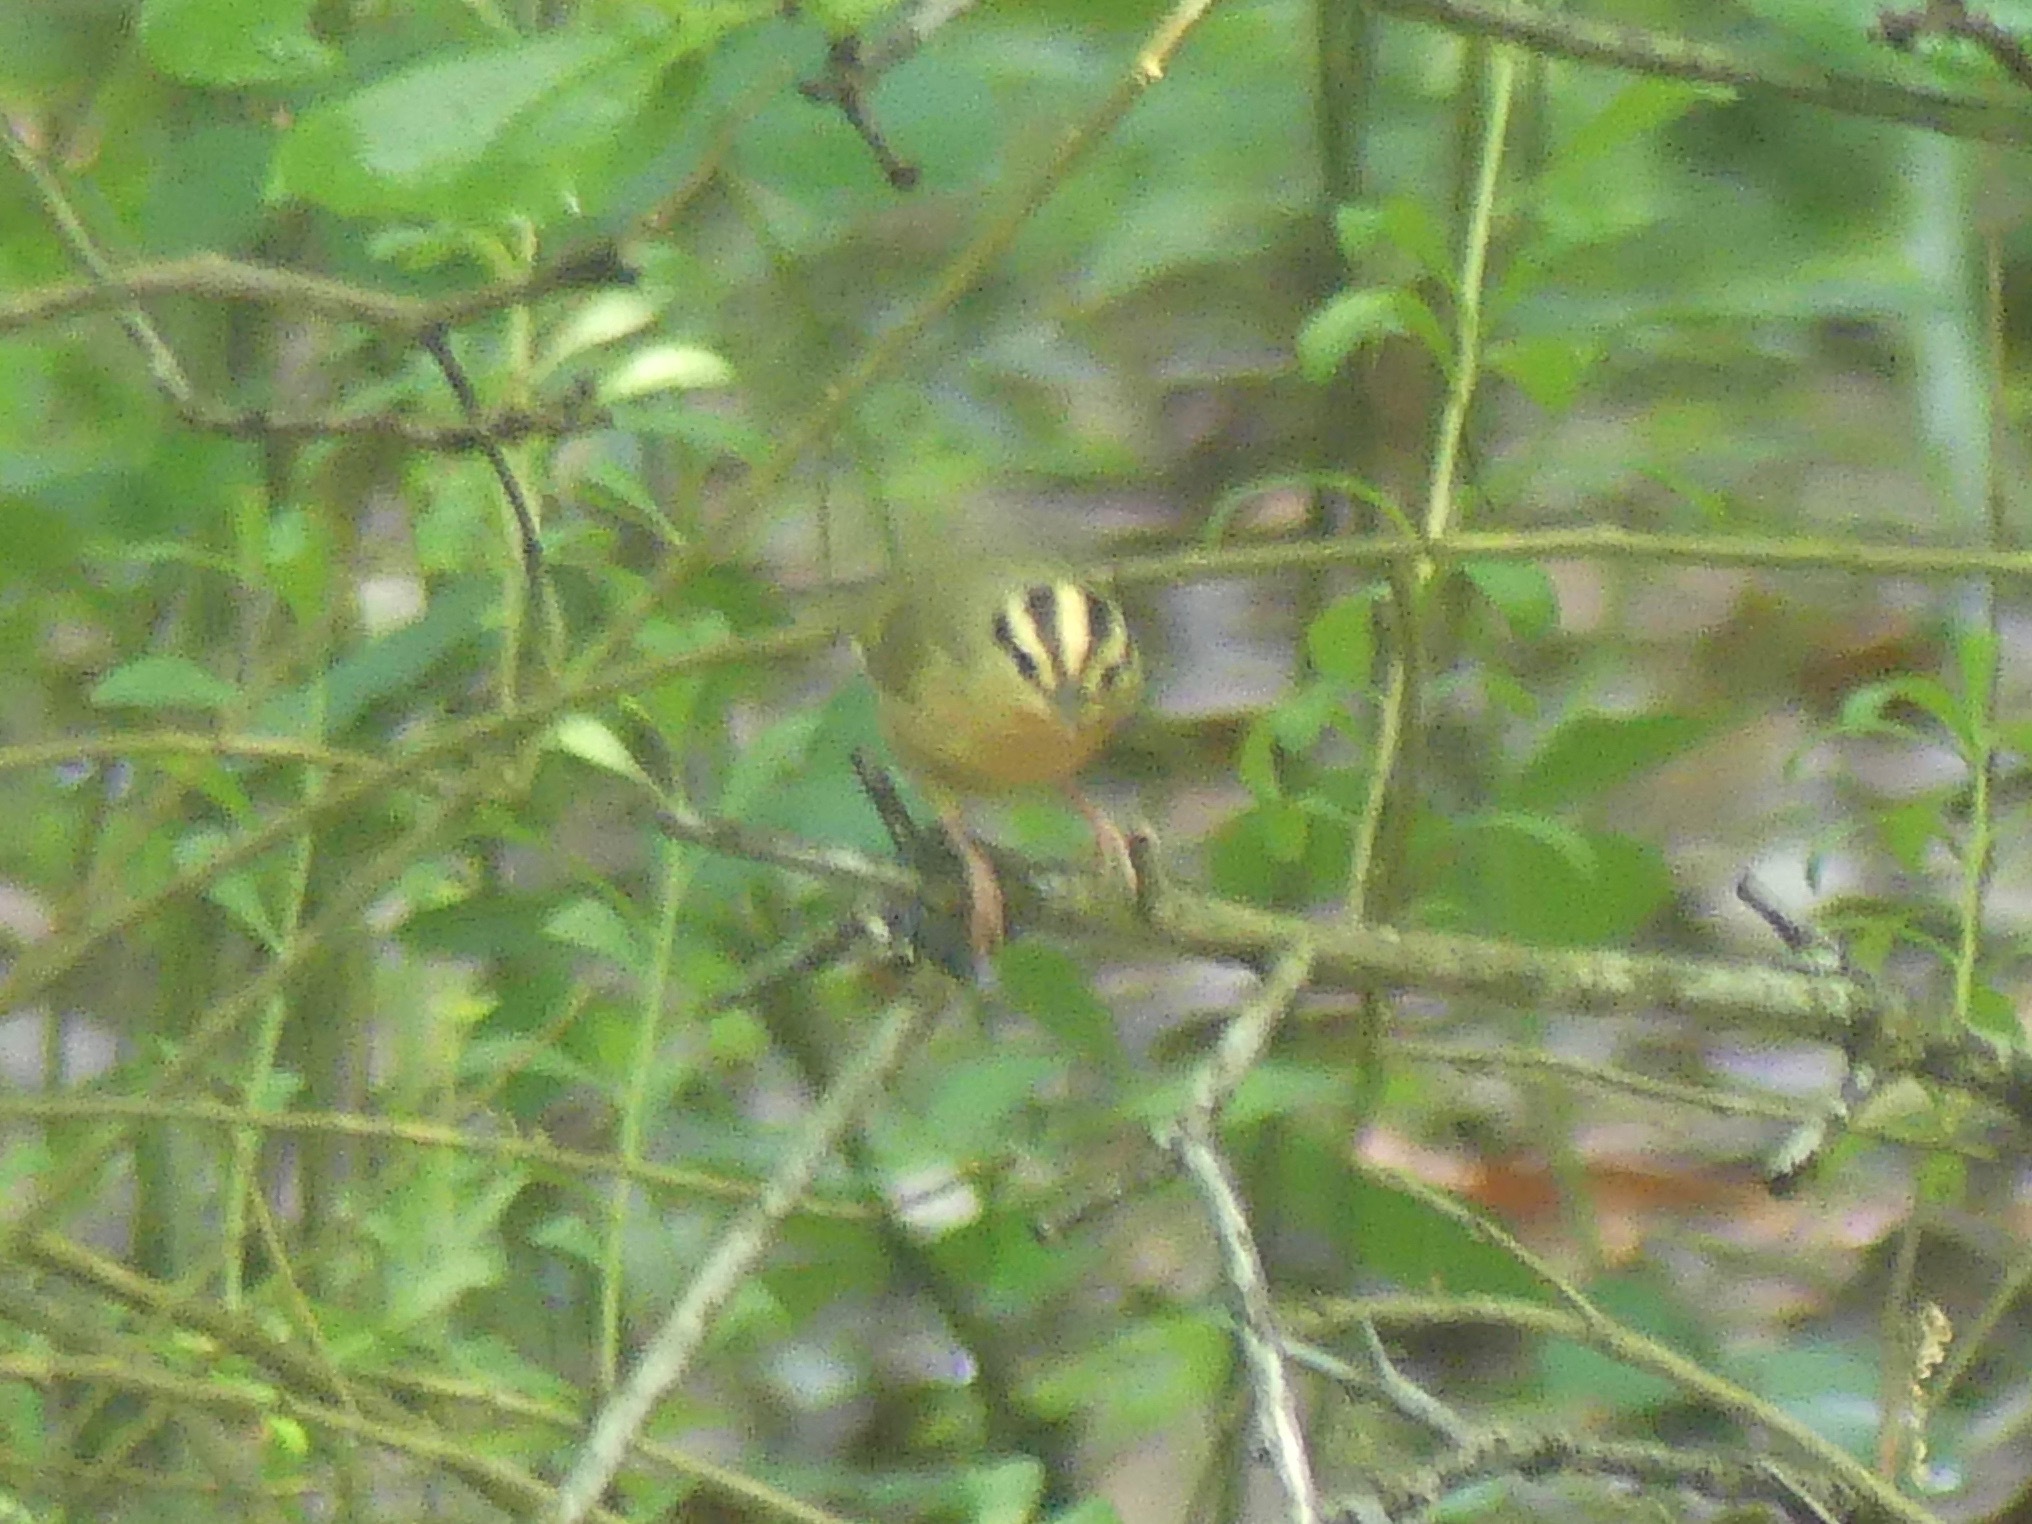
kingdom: Animalia
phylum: Chordata
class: Aves
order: Passeriformes
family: Parulidae
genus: Helmitheros
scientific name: Helmitheros vermivorum
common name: Worm-eating warbler
